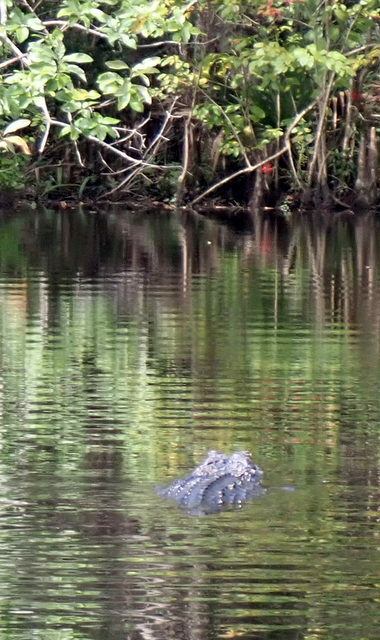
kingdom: Animalia
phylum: Chordata
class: Crocodylia
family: Alligatoridae
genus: Alligator
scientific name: Alligator mississippiensis
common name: American alligator
